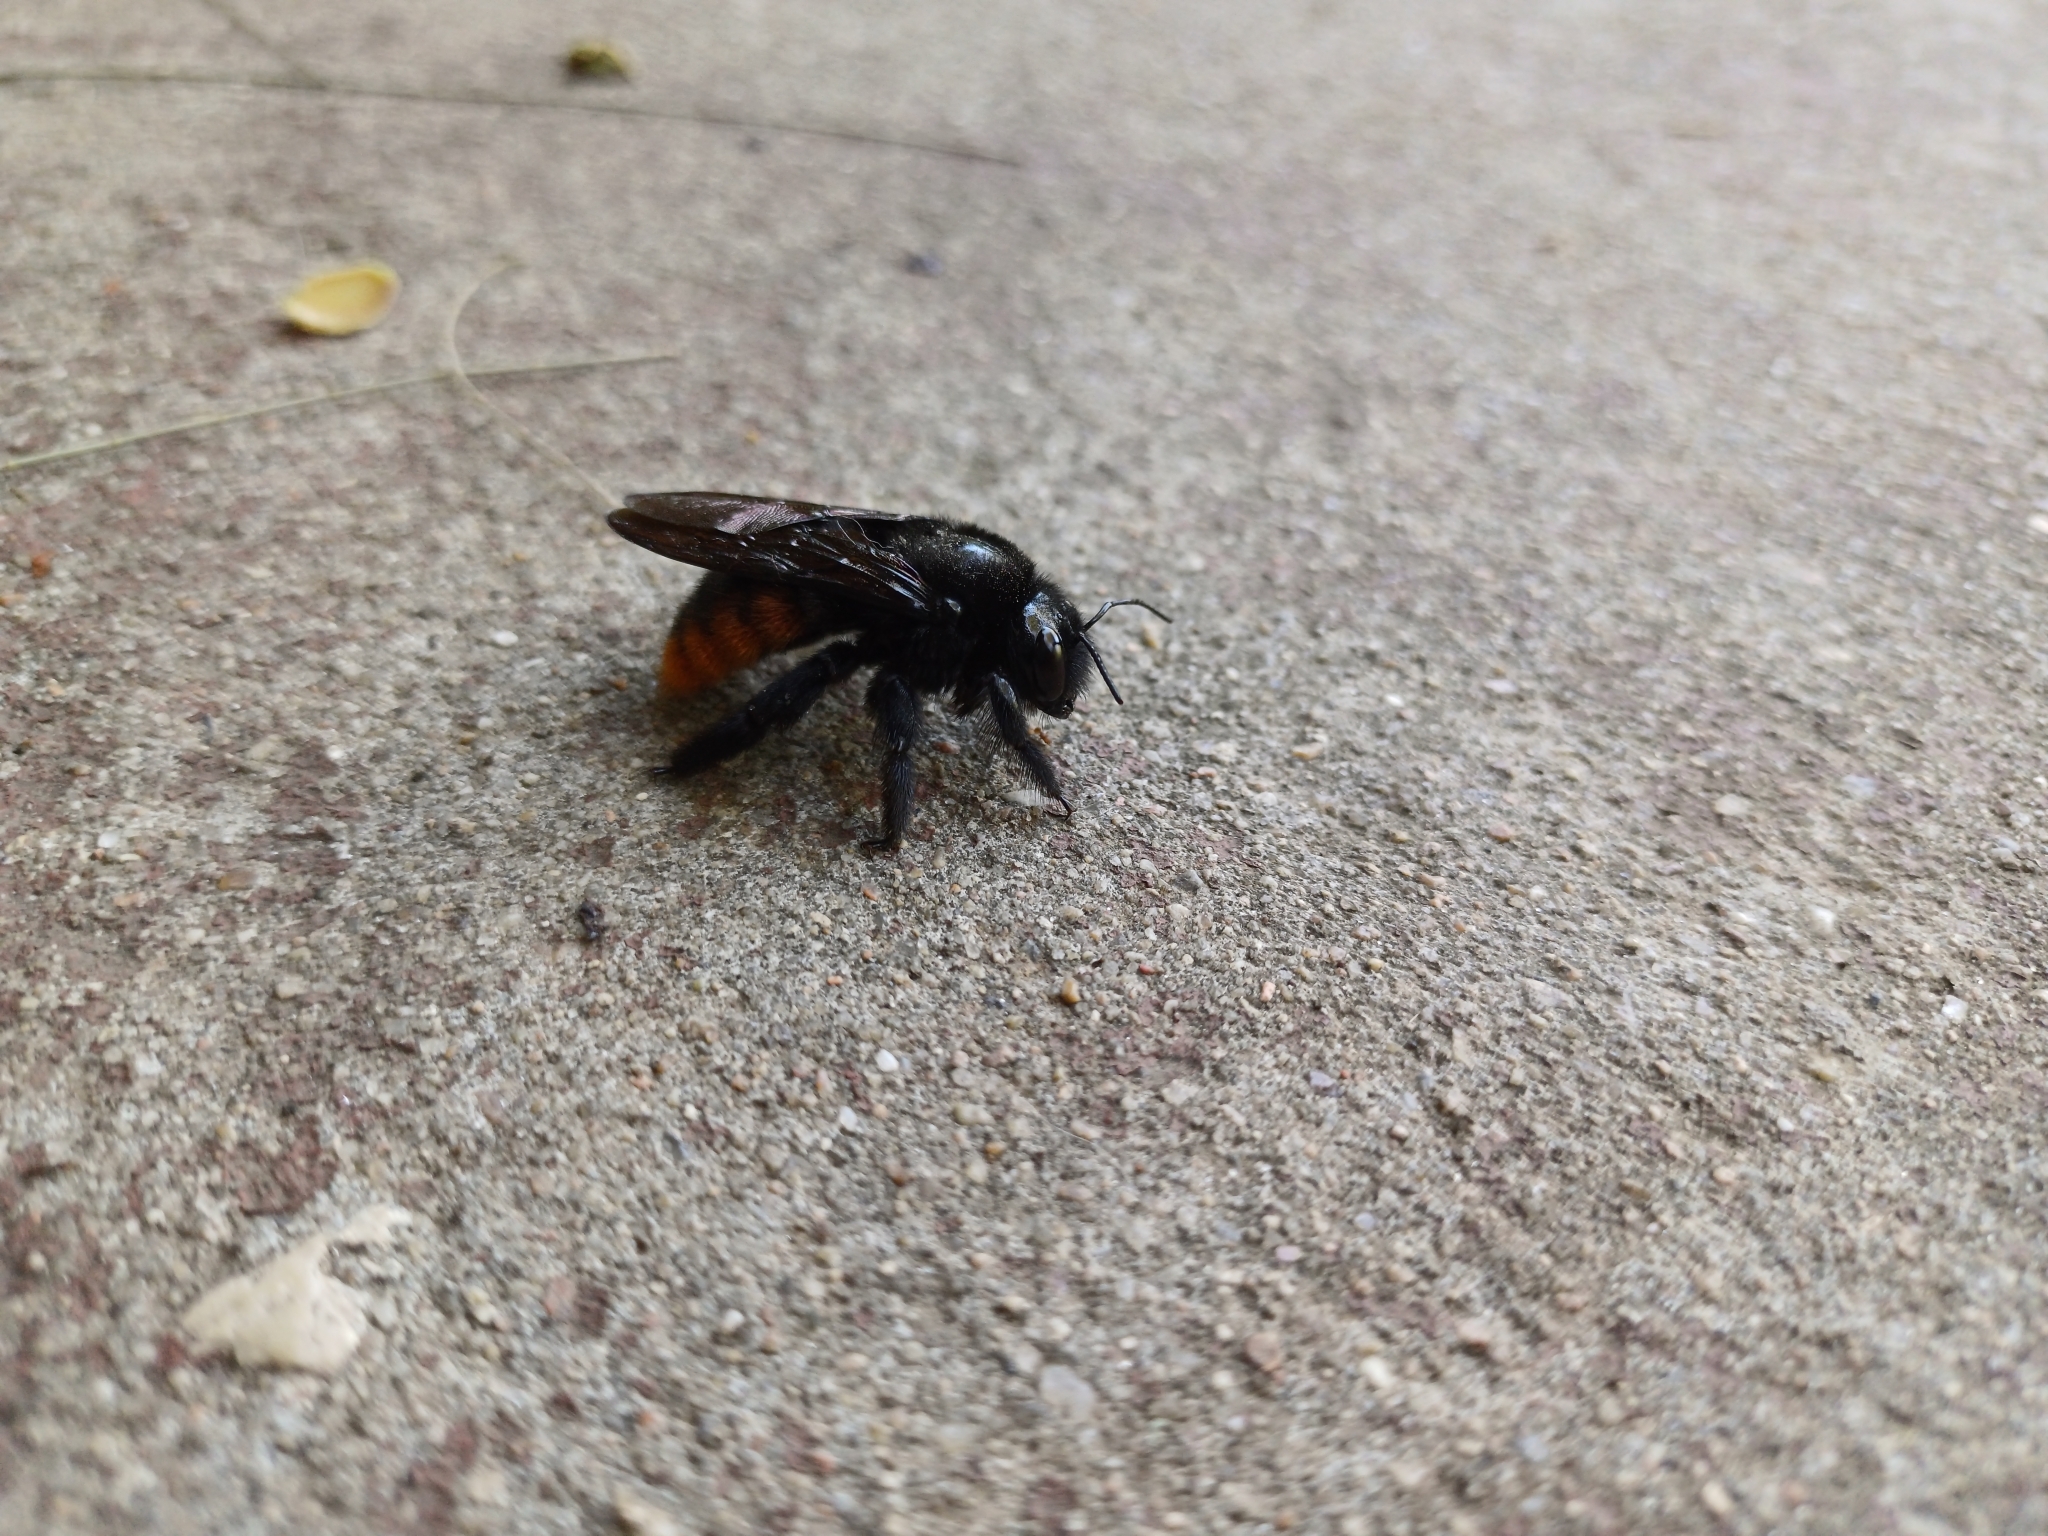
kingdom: Animalia
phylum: Arthropoda
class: Insecta
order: Hymenoptera
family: Apidae
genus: Xylocopa
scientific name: Xylocopa augusti
